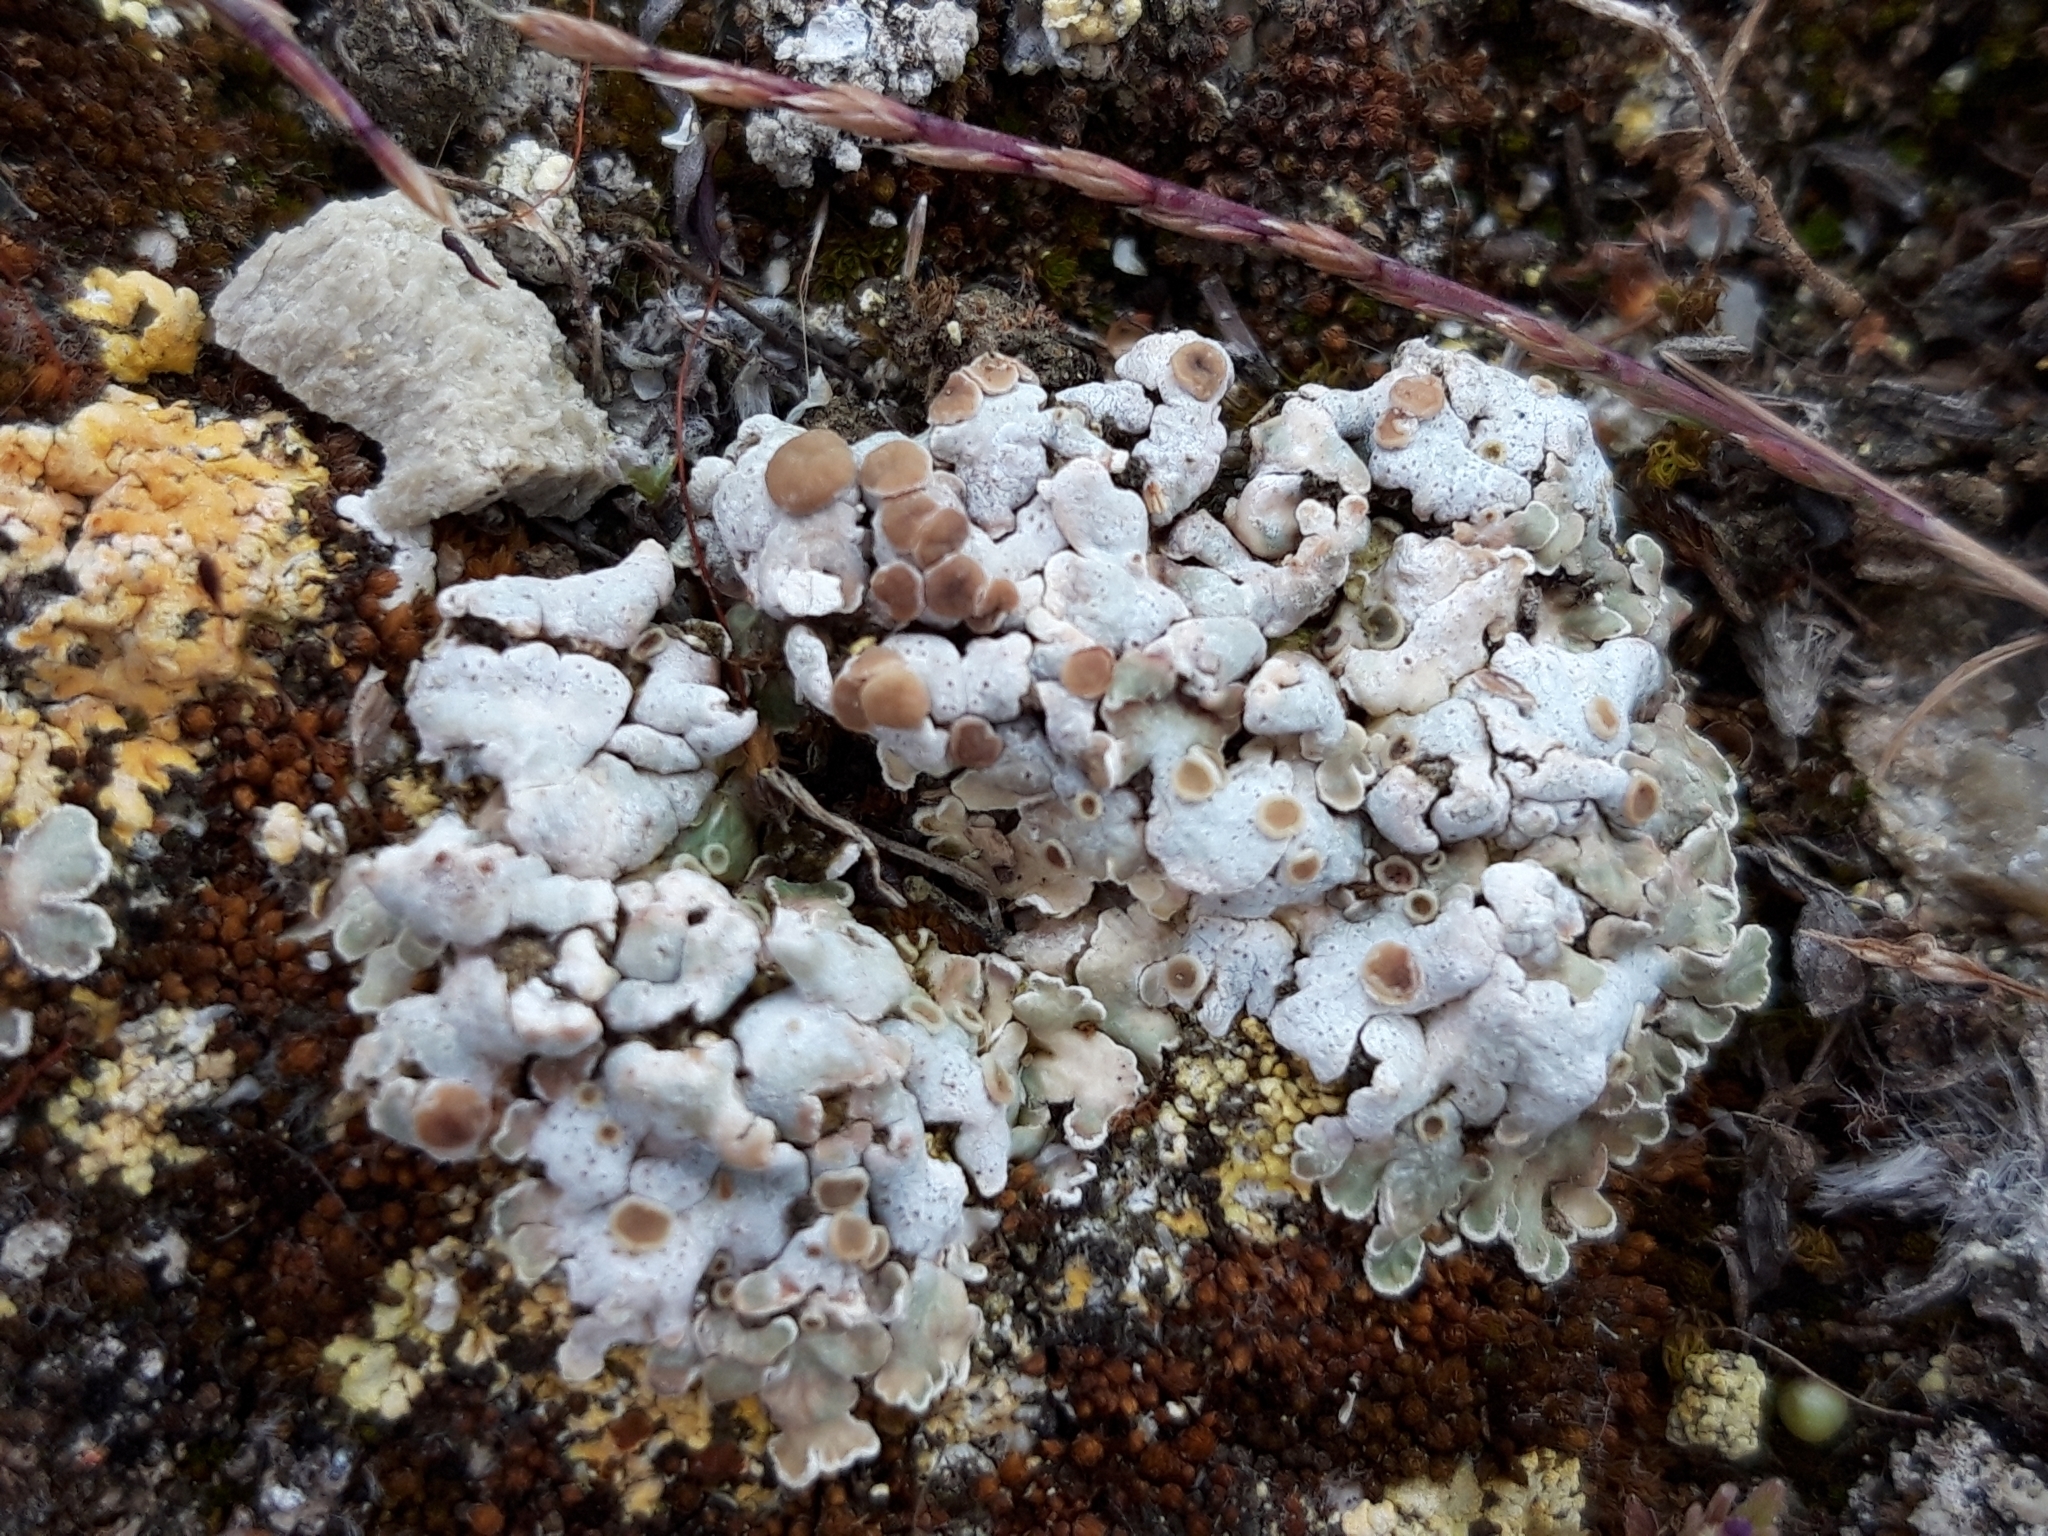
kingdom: Fungi
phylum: Ascomycota
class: Lecanoromycetes
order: Lecanorales
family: Stereocaulaceae
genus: Squamarina
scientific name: Squamarina lentigera
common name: Scaly breck-lichen
